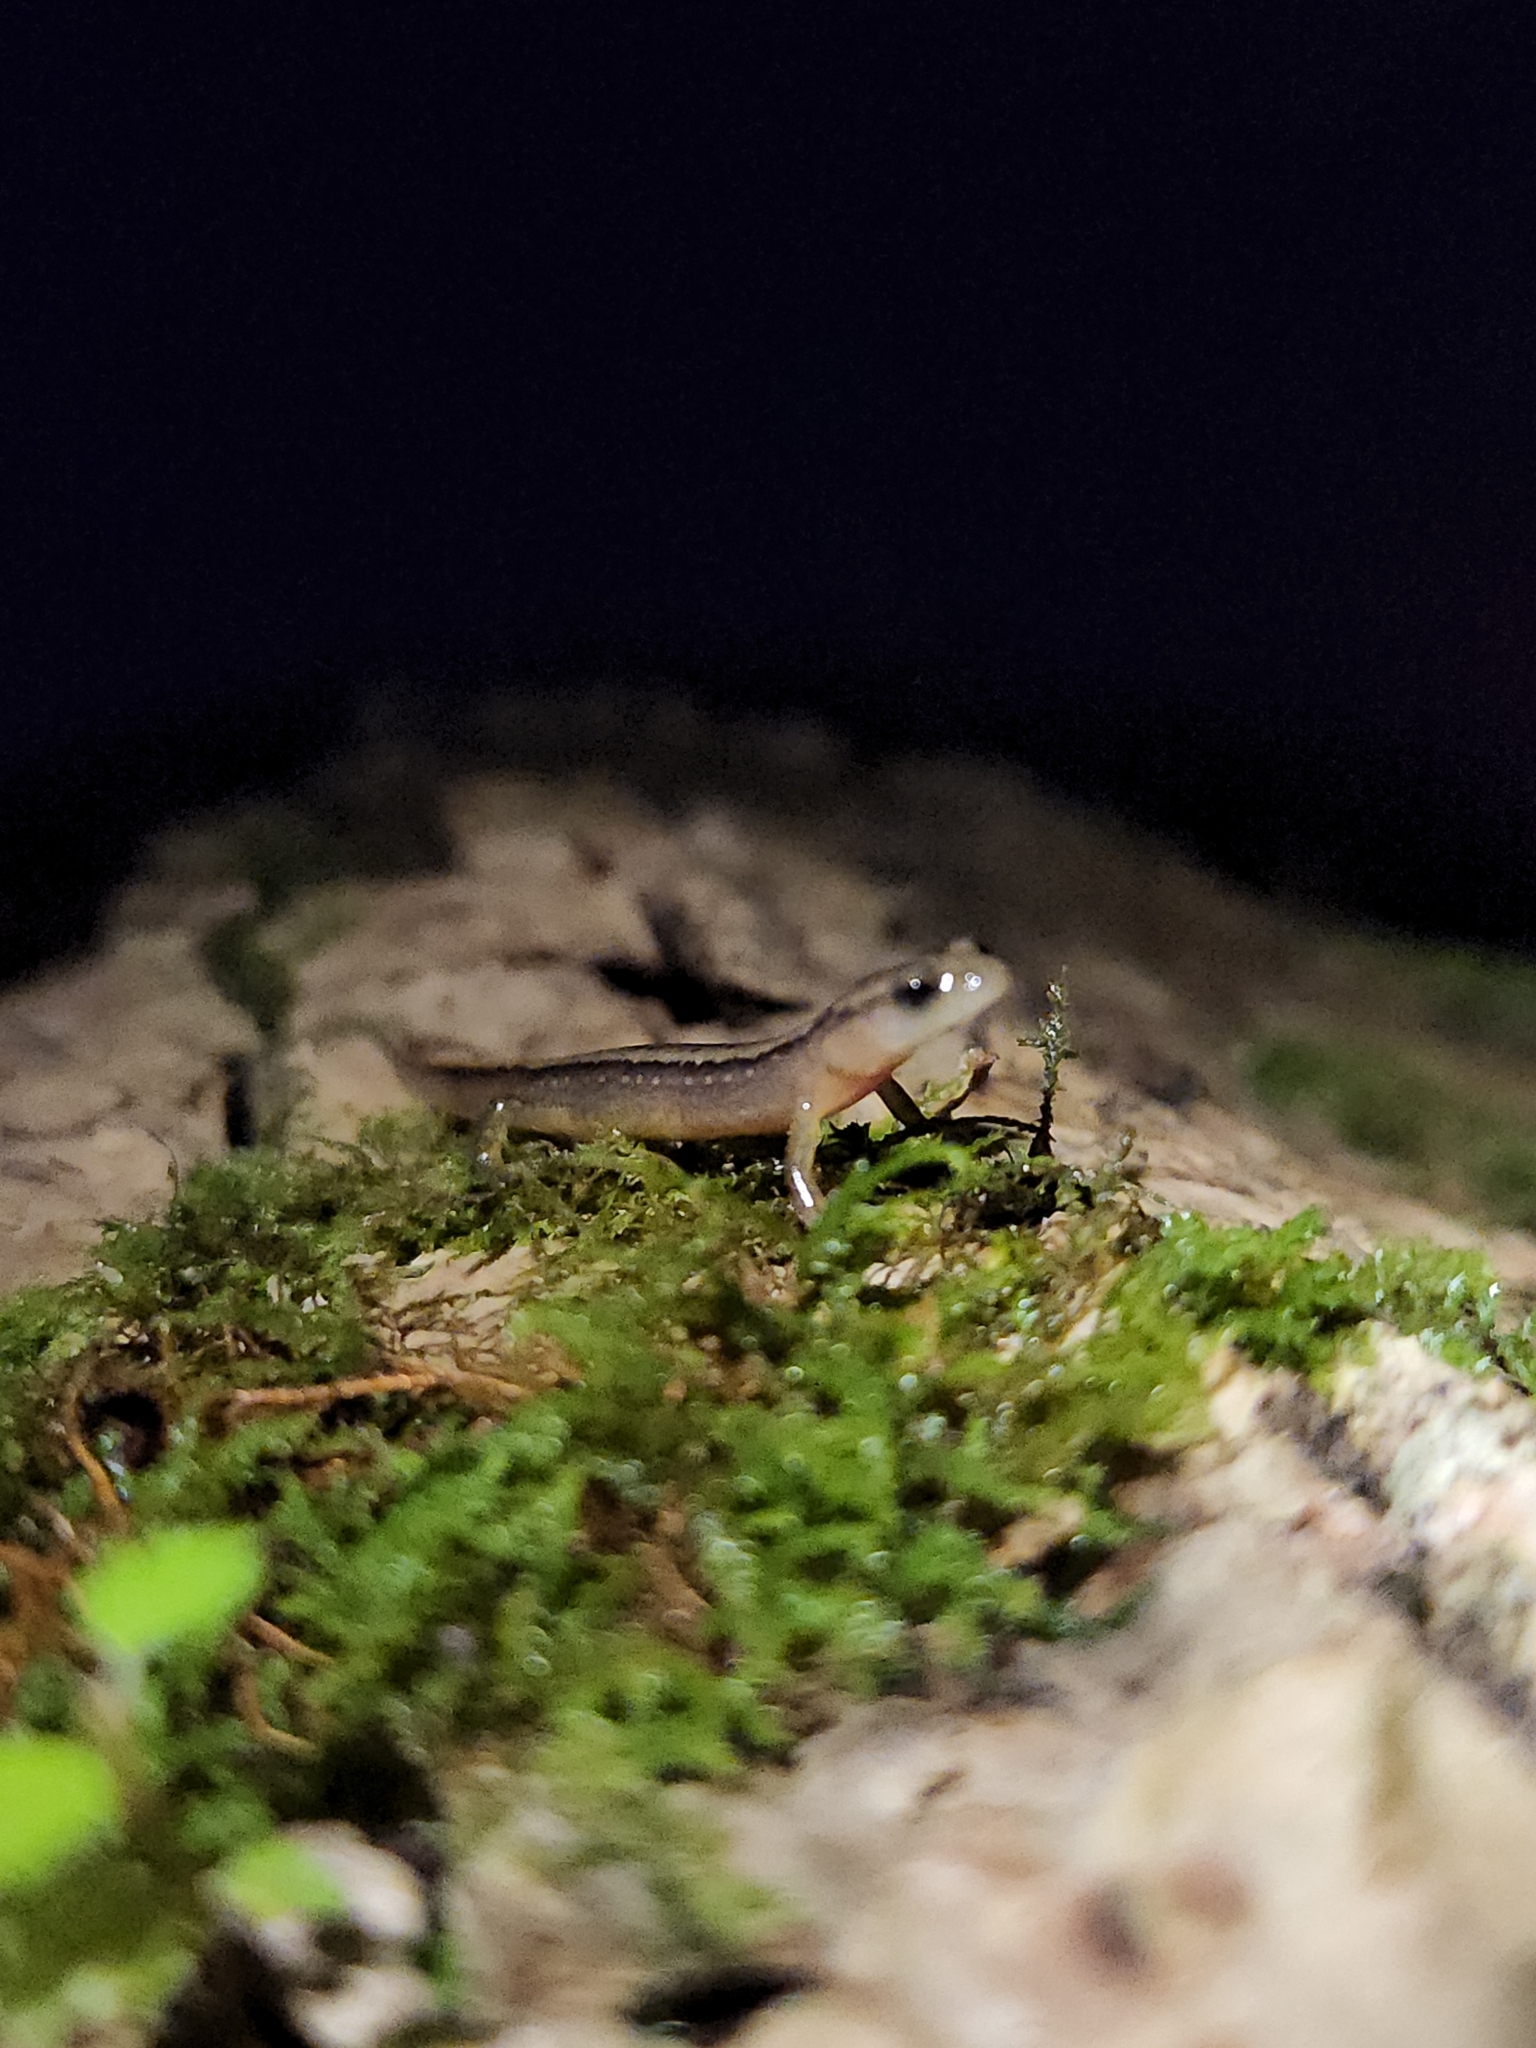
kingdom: Animalia
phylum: Chordata
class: Amphibia
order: Caudata
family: Plethodontidae
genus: Eurycea
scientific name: Eurycea bislineata
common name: Northern two-lined salamander
